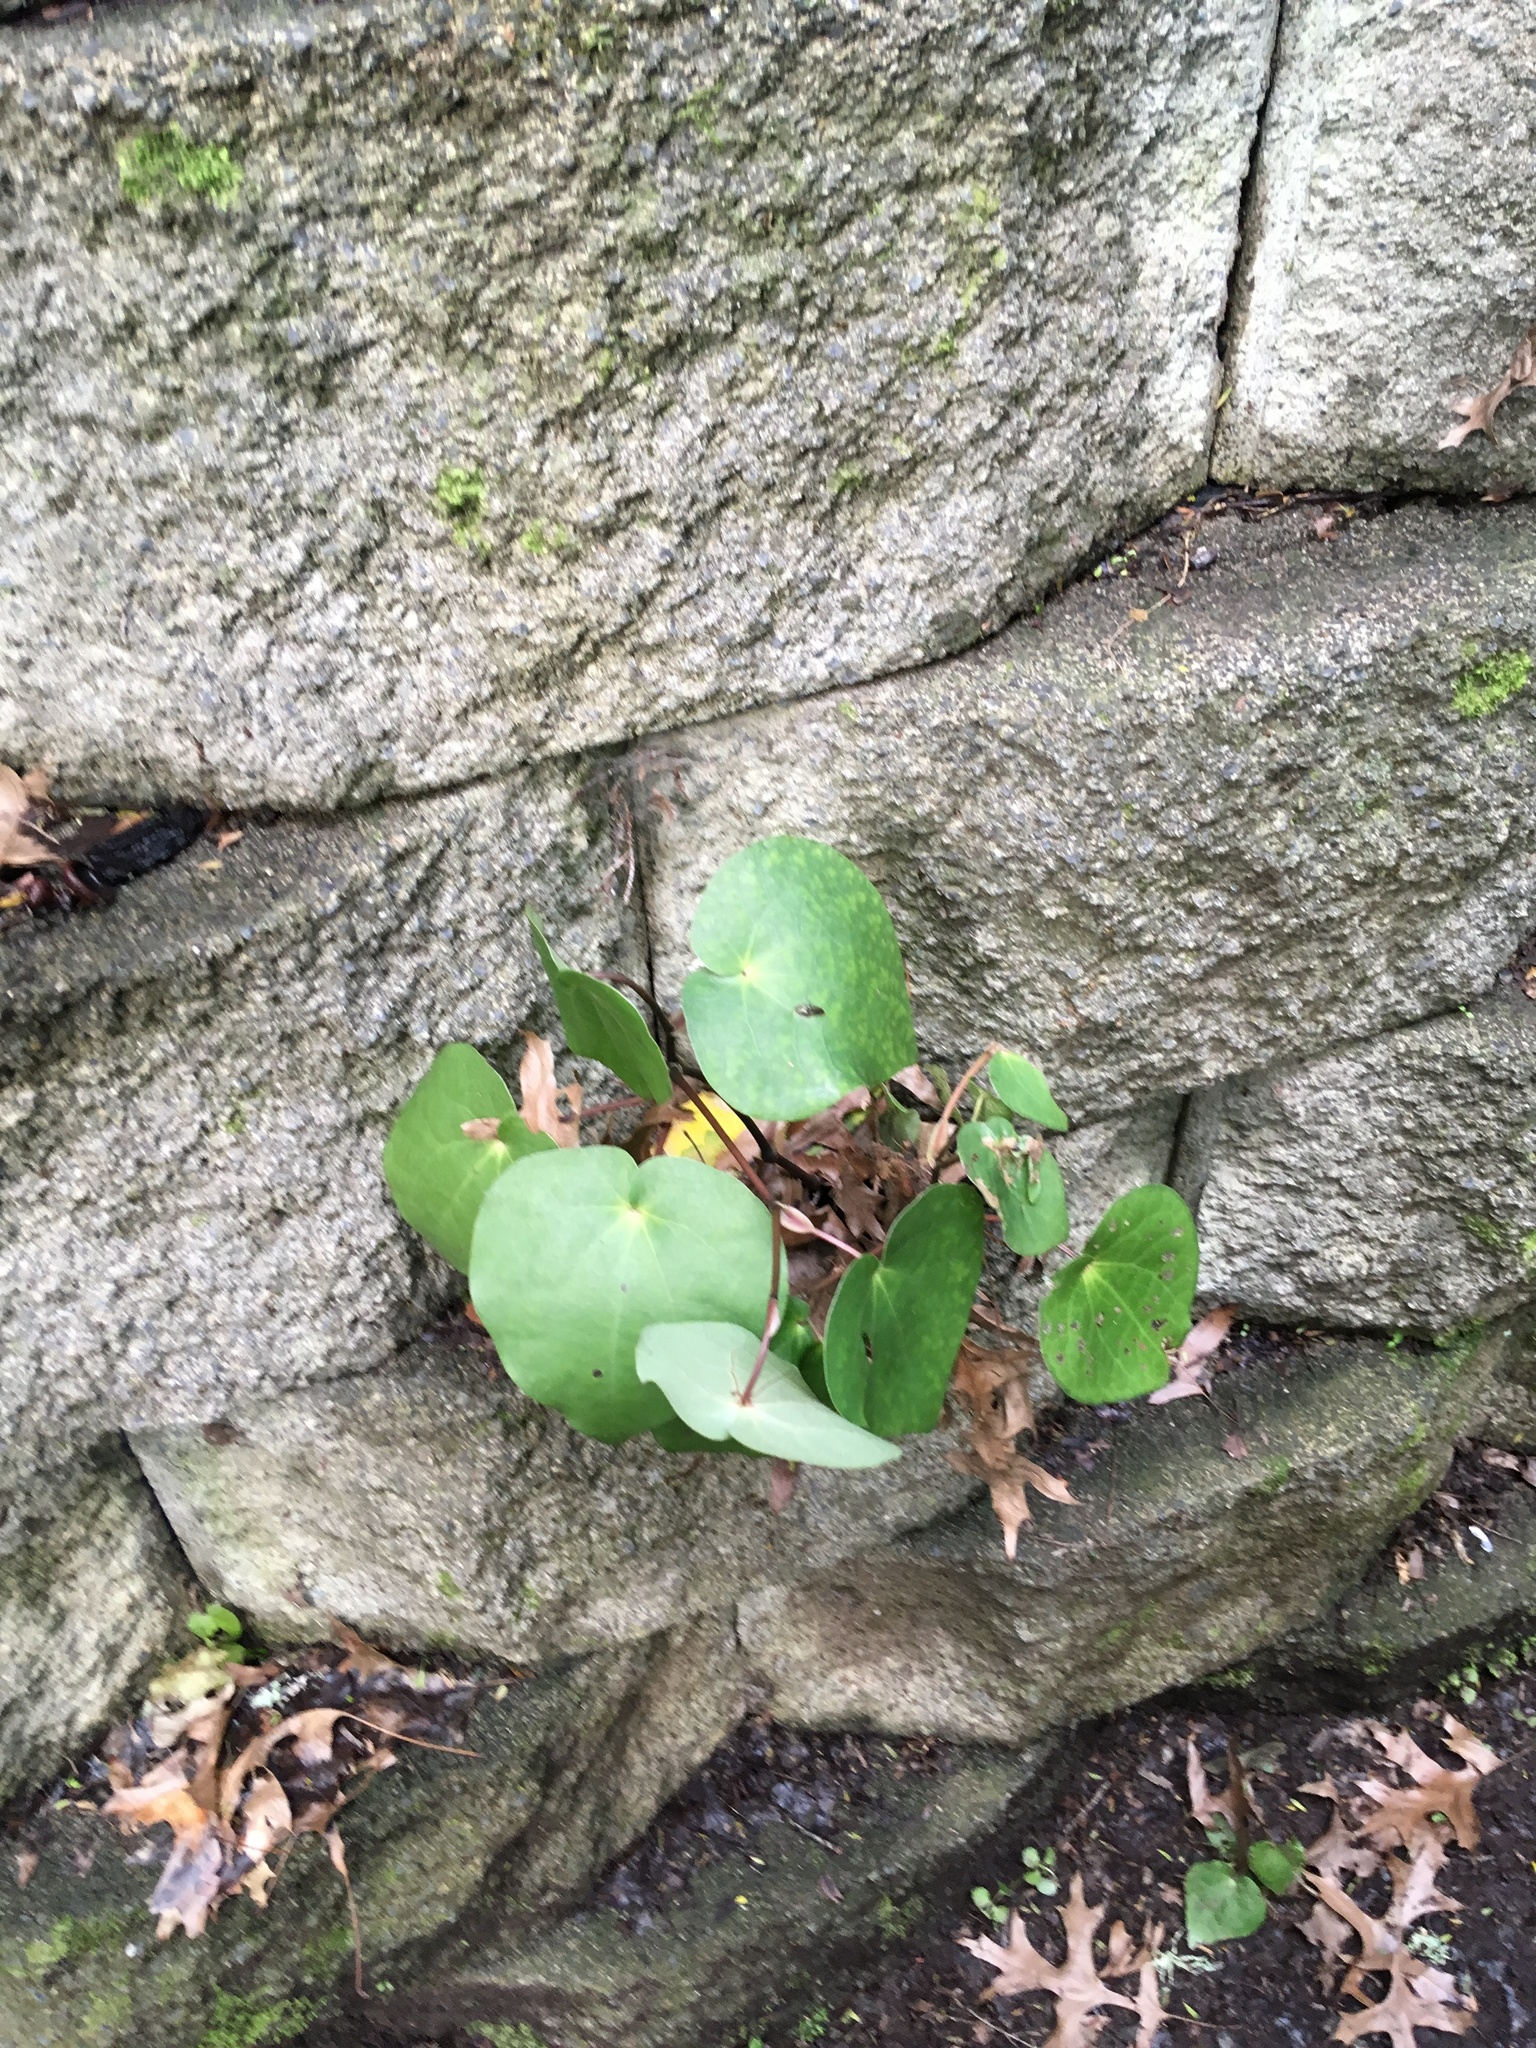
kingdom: Plantae
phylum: Tracheophyta
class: Magnoliopsida
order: Piperales
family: Piperaceae
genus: Macropiper
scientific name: Macropiper excelsum
